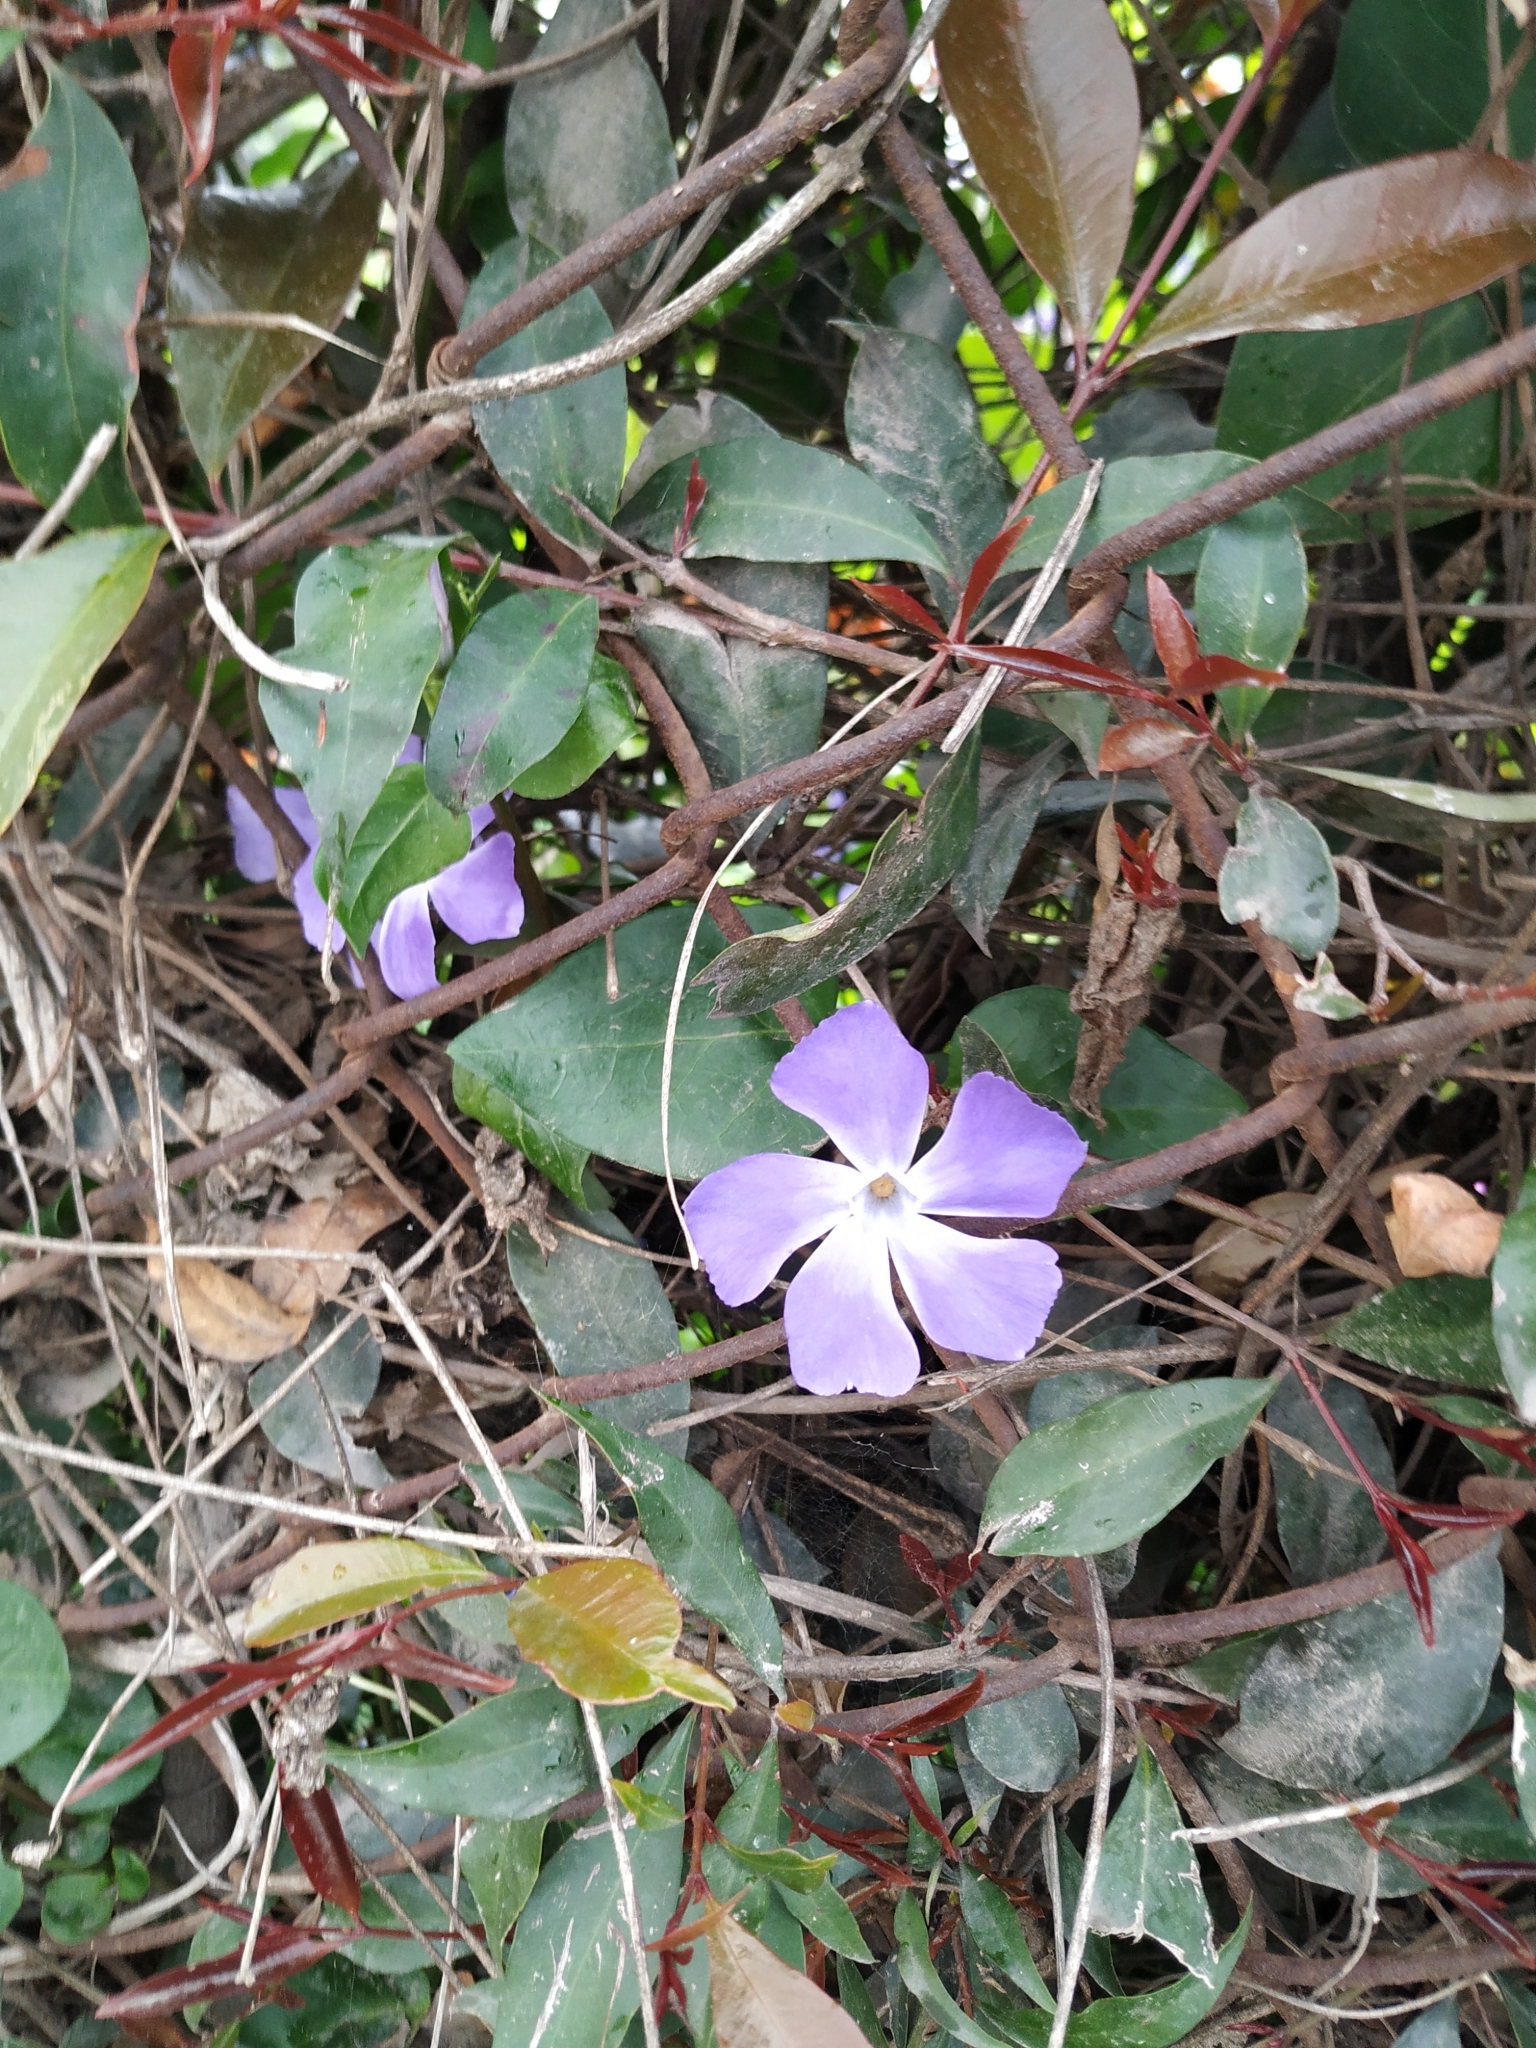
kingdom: Plantae
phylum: Tracheophyta
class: Magnoliopsida
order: Gentianales
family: Apocynaceae
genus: Vinca
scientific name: Vinca major
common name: Greater periwinkle
